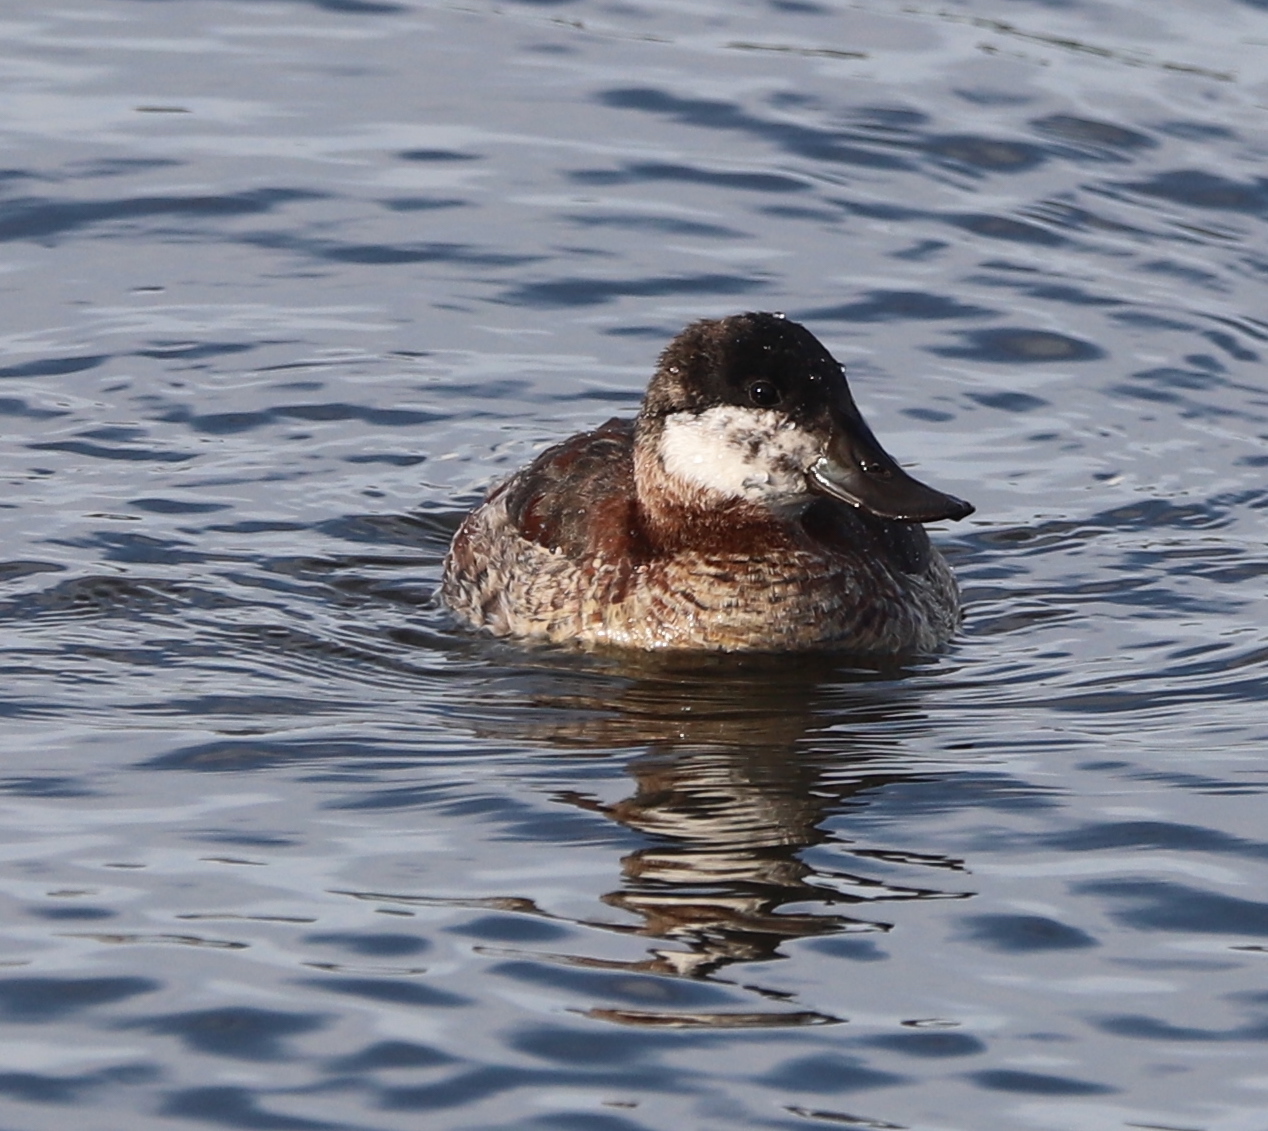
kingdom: Animalia
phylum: Chordata
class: Aves
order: Anseriformes
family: Anatidae
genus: Oxyura
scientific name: Oxyura jamaicensis
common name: Ruddy duck
